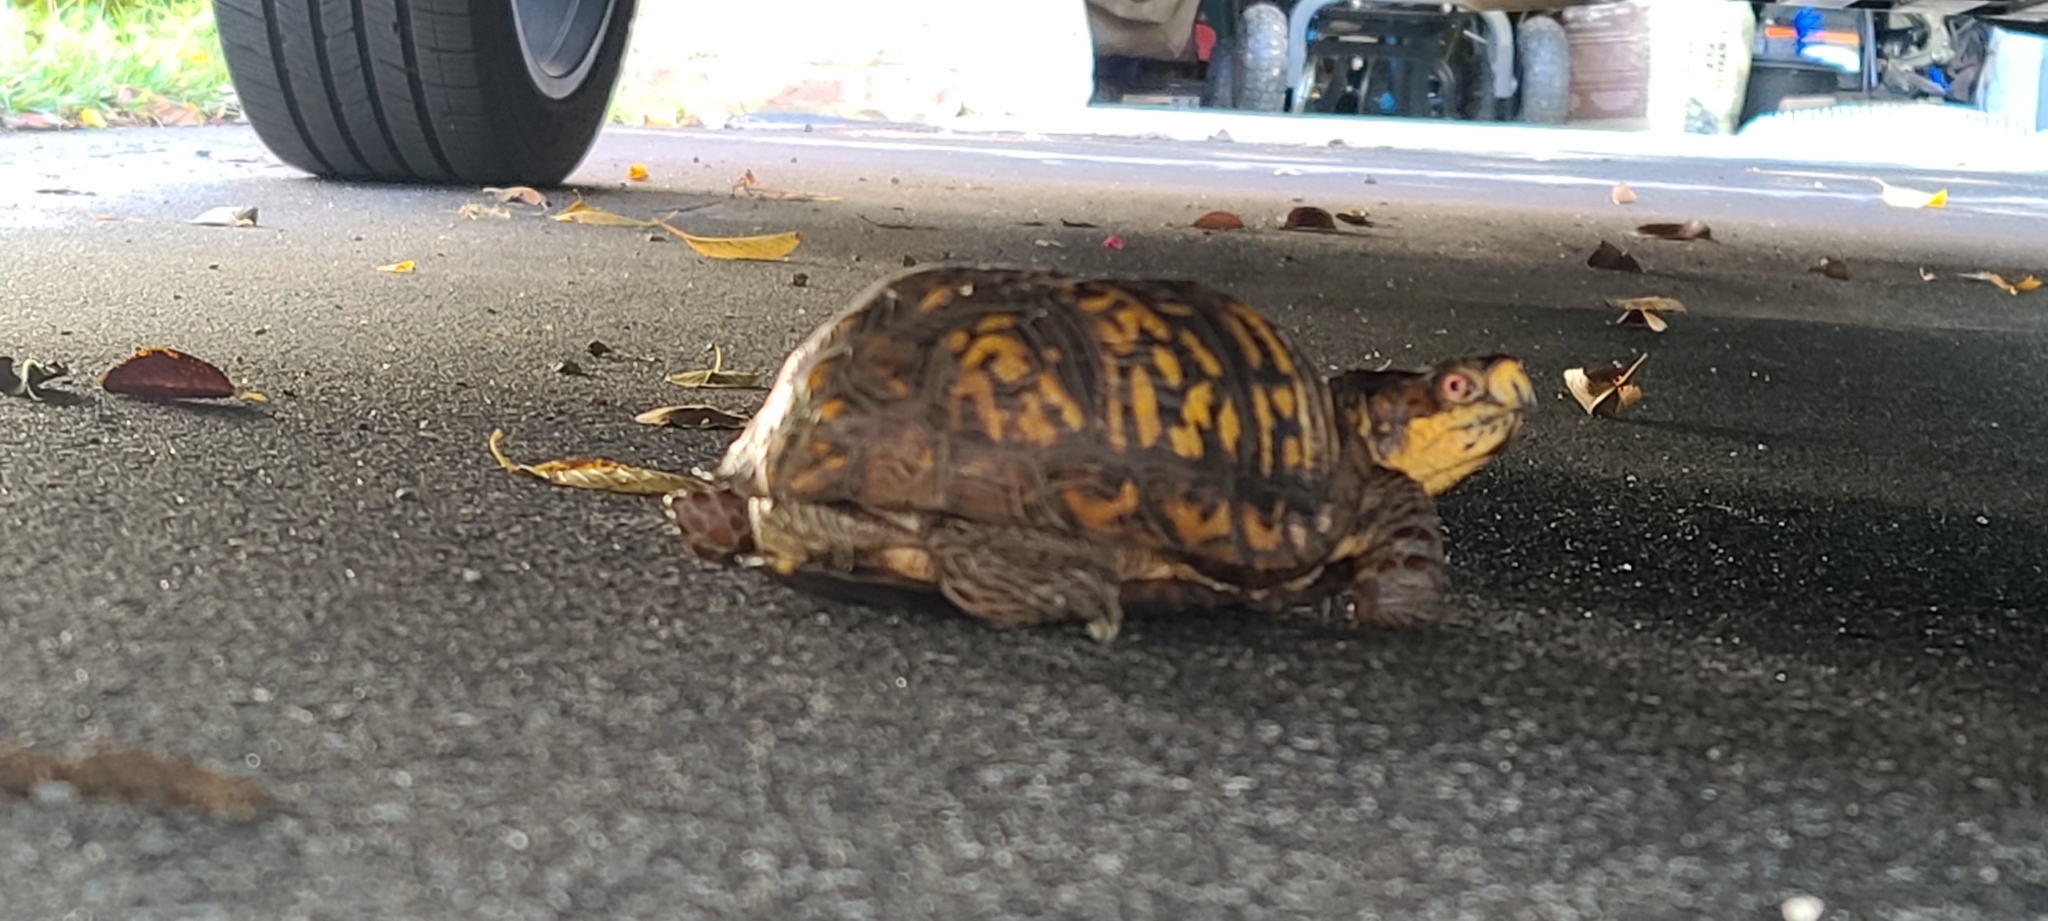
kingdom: Animalia
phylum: Chordata
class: Testudines
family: Emydidae
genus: Terrapene
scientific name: Terrapene carolina
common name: Common box turtle
